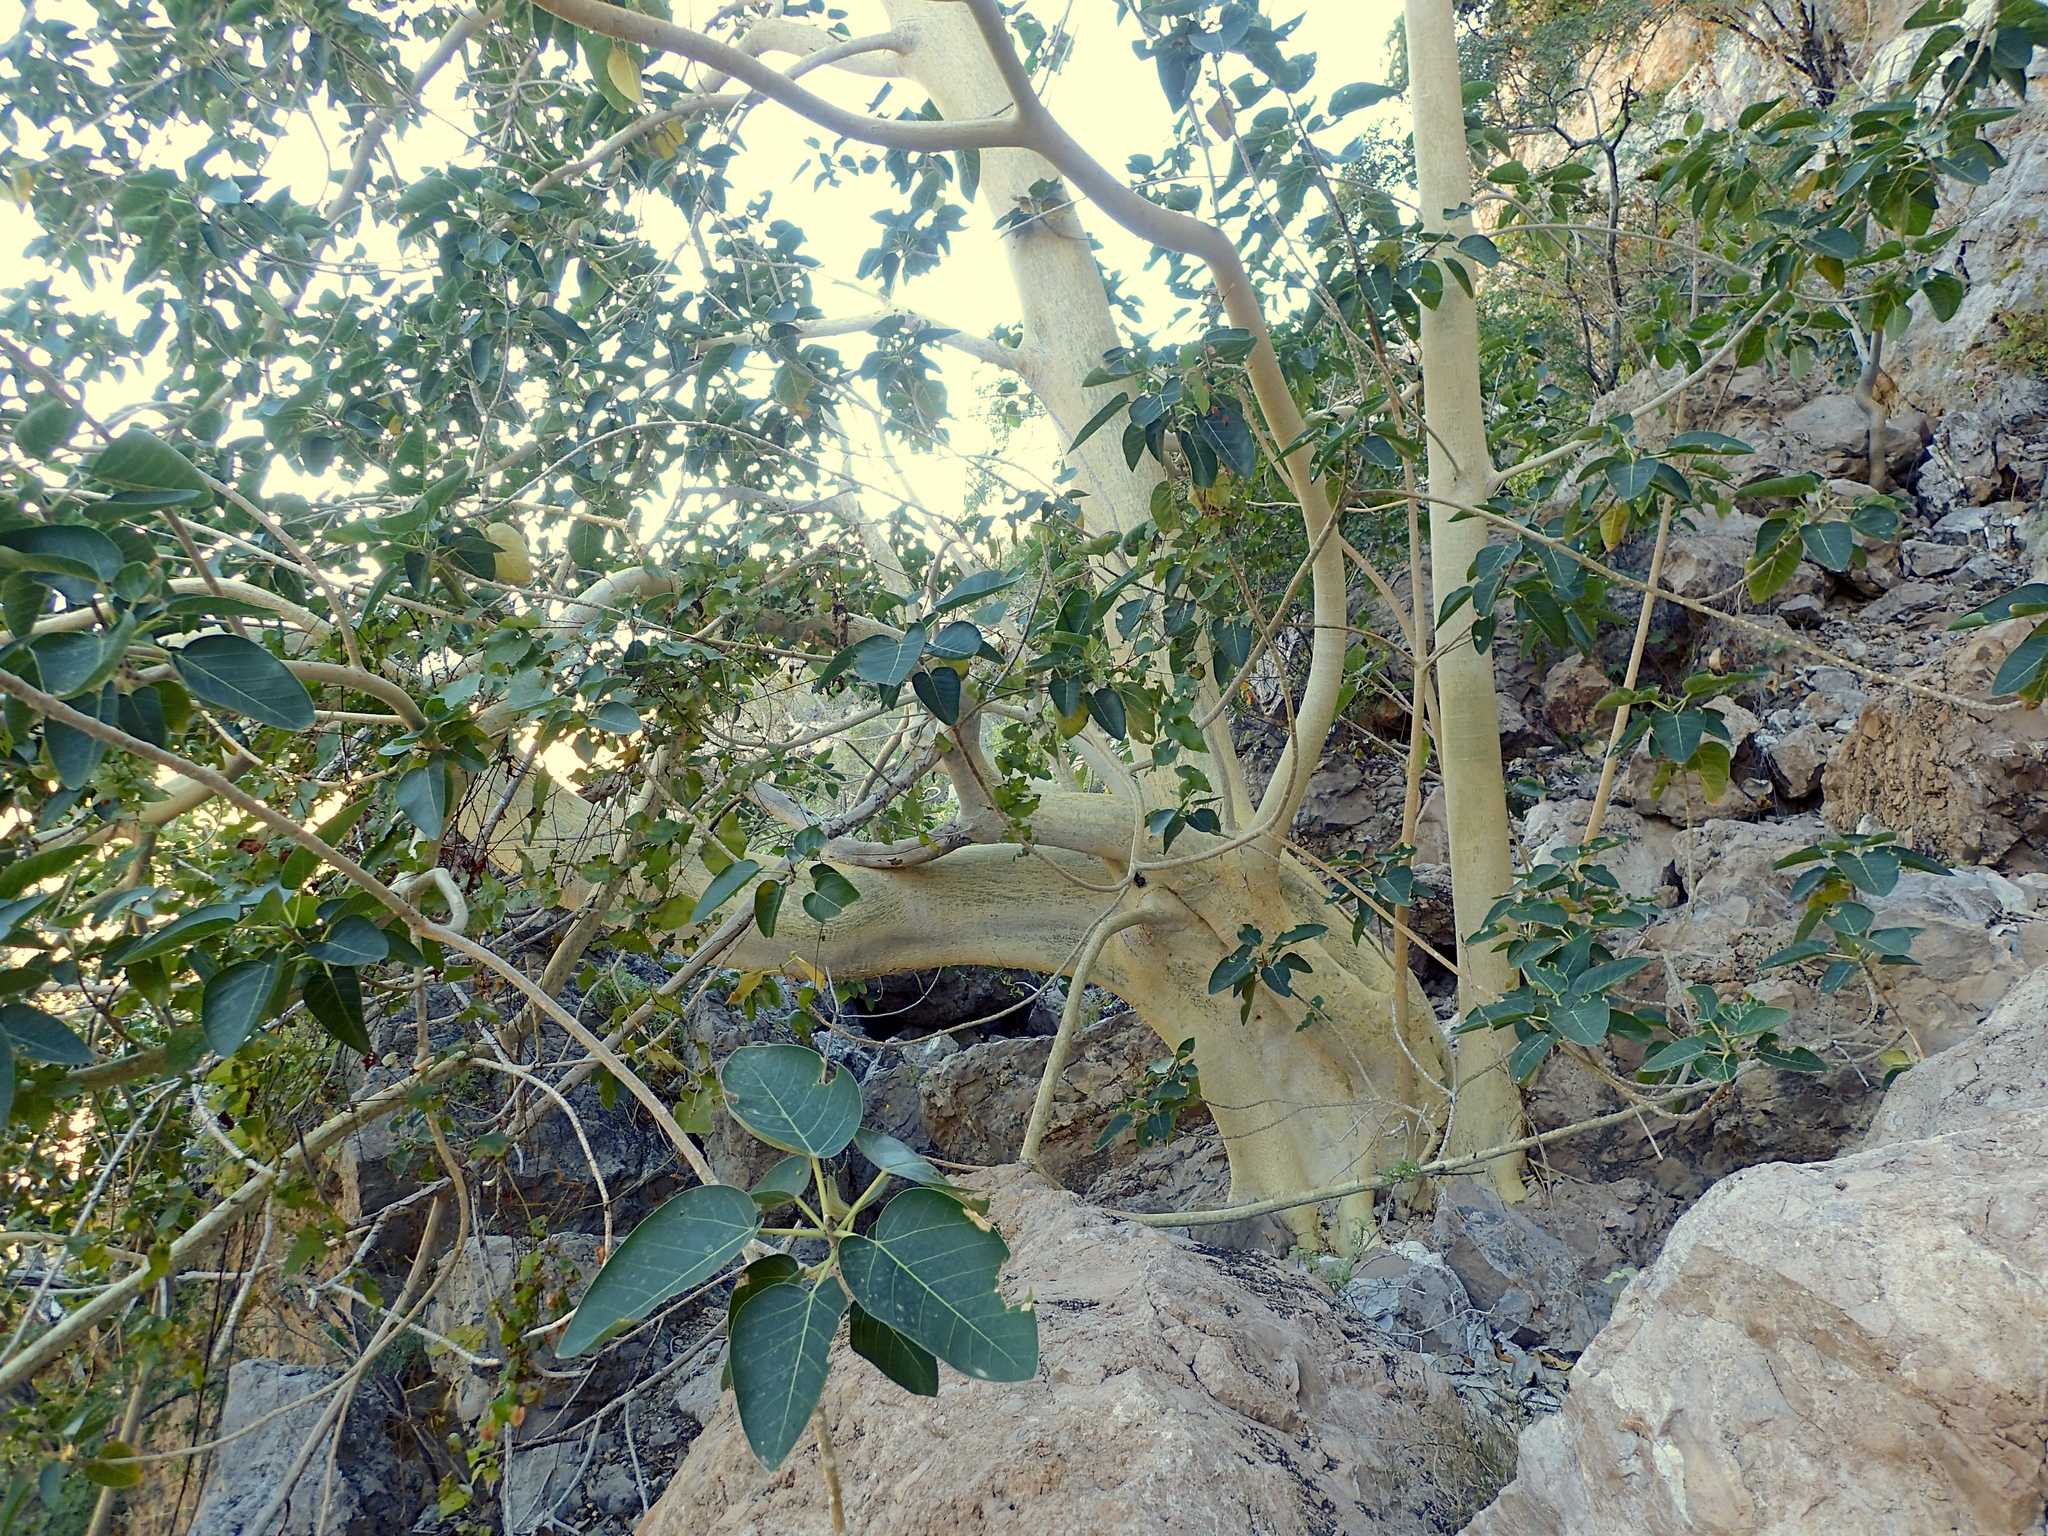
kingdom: Plantae
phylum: Tracheophyta
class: Magnoliopsida
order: Rosales
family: Moraceae
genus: Ficus
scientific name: Ficus petiolaris
